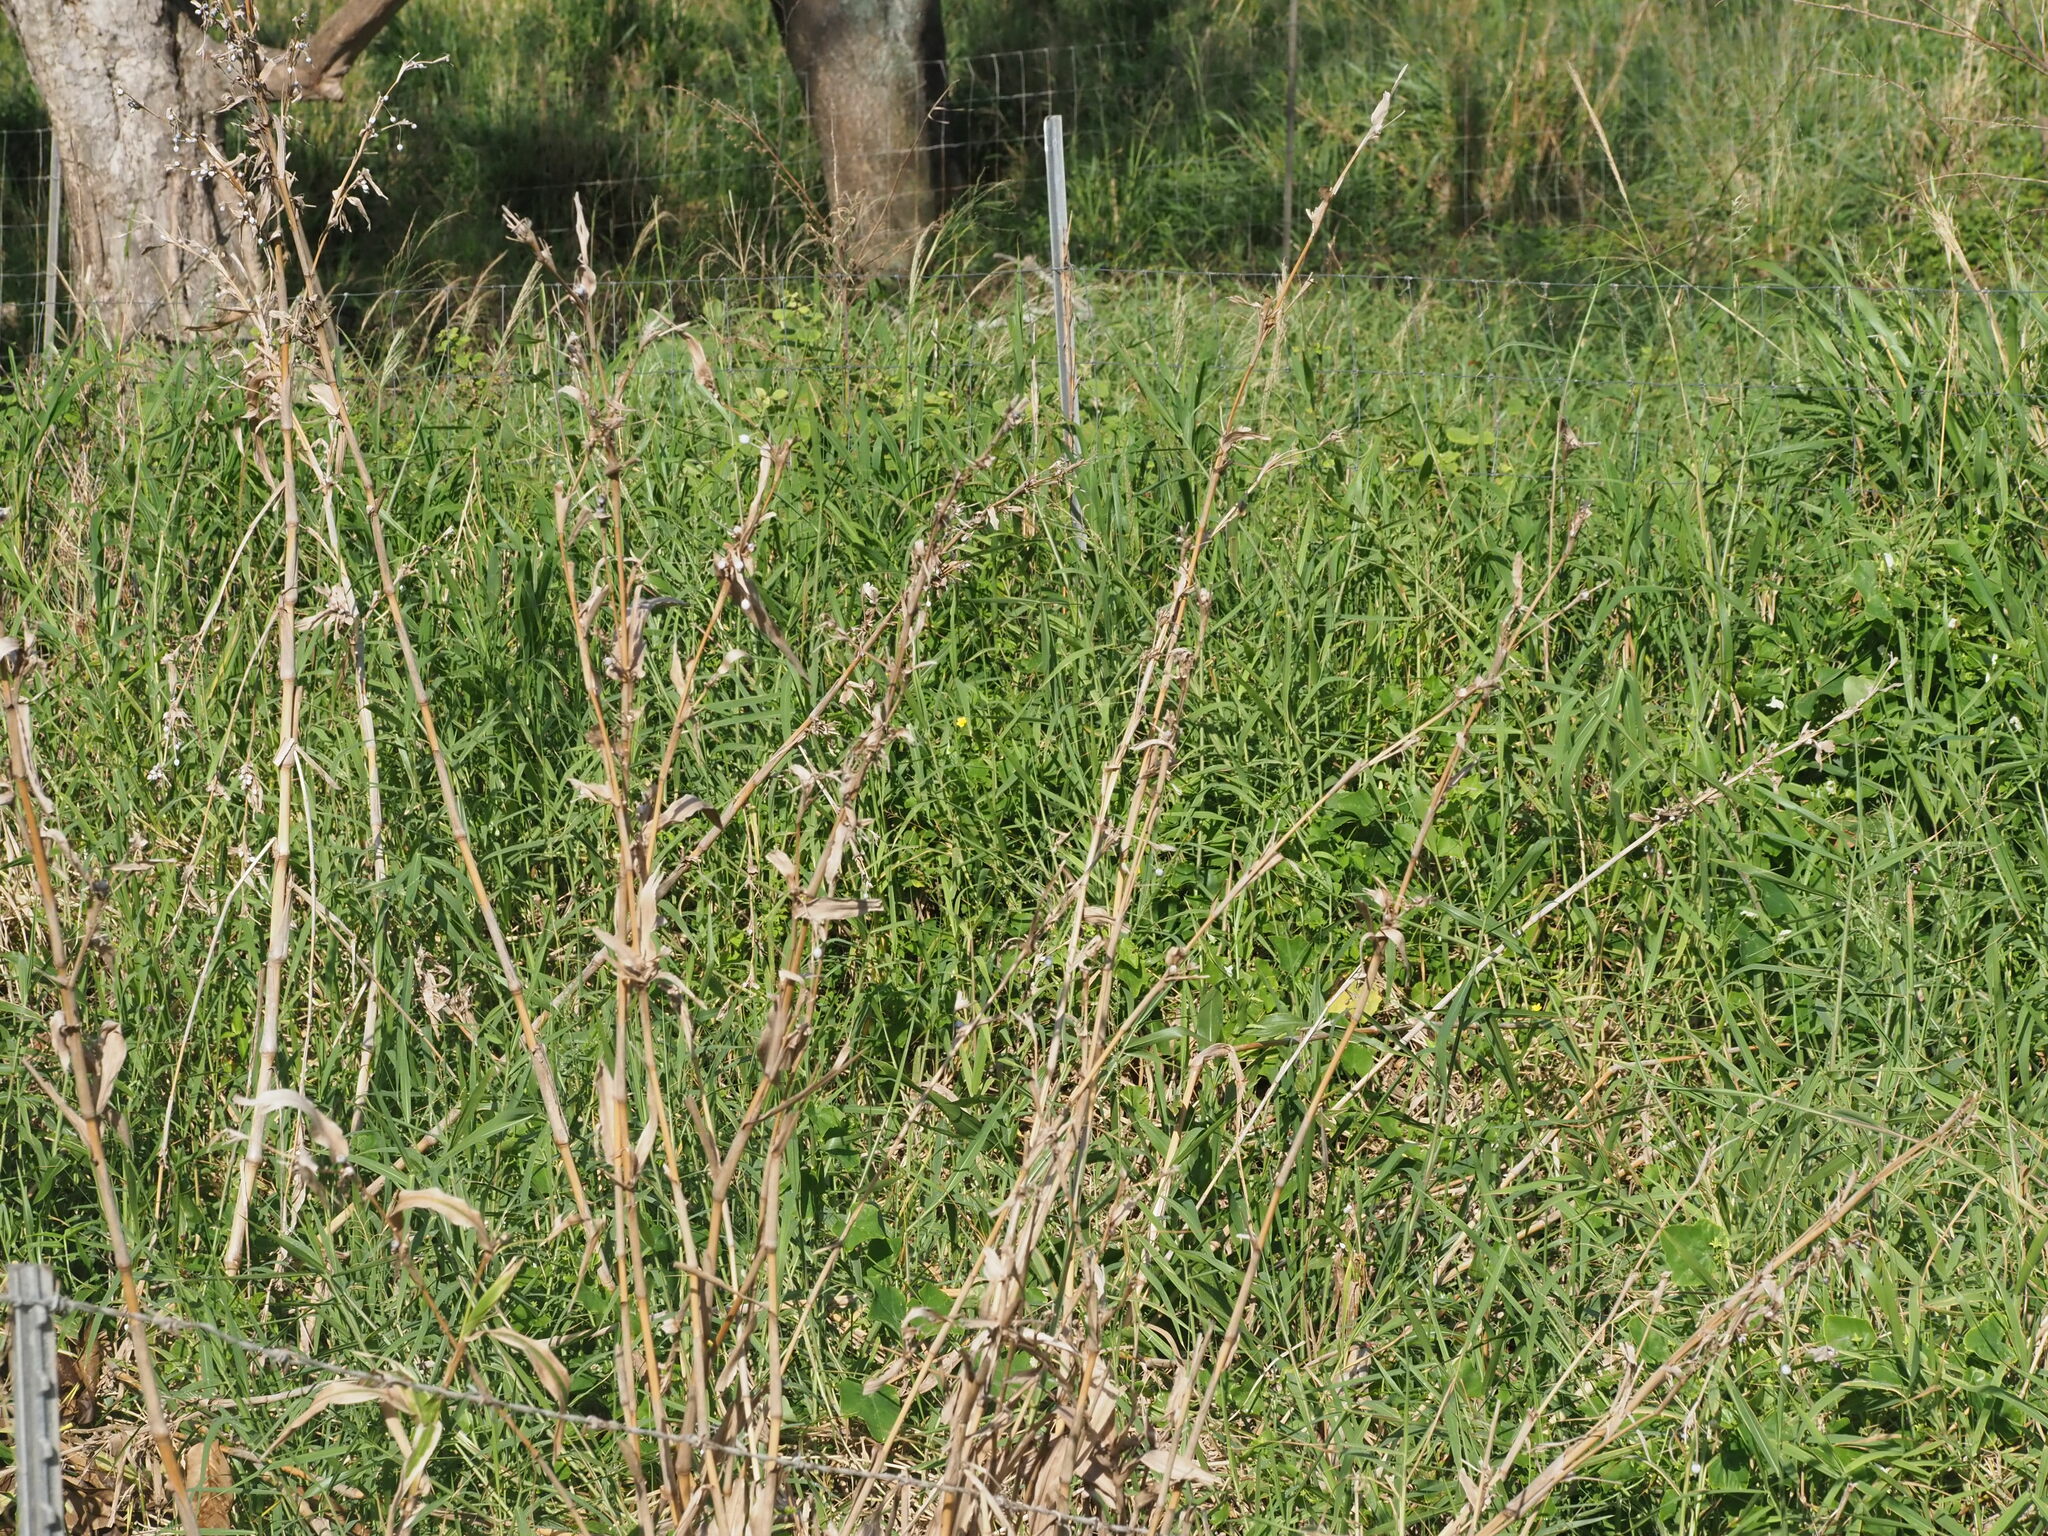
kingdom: Plantae
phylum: Tracheophyta
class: Liliopsida
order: Poales
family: Poaceae
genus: Coix
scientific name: Coix lacryma-jobi
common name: Job's tears
